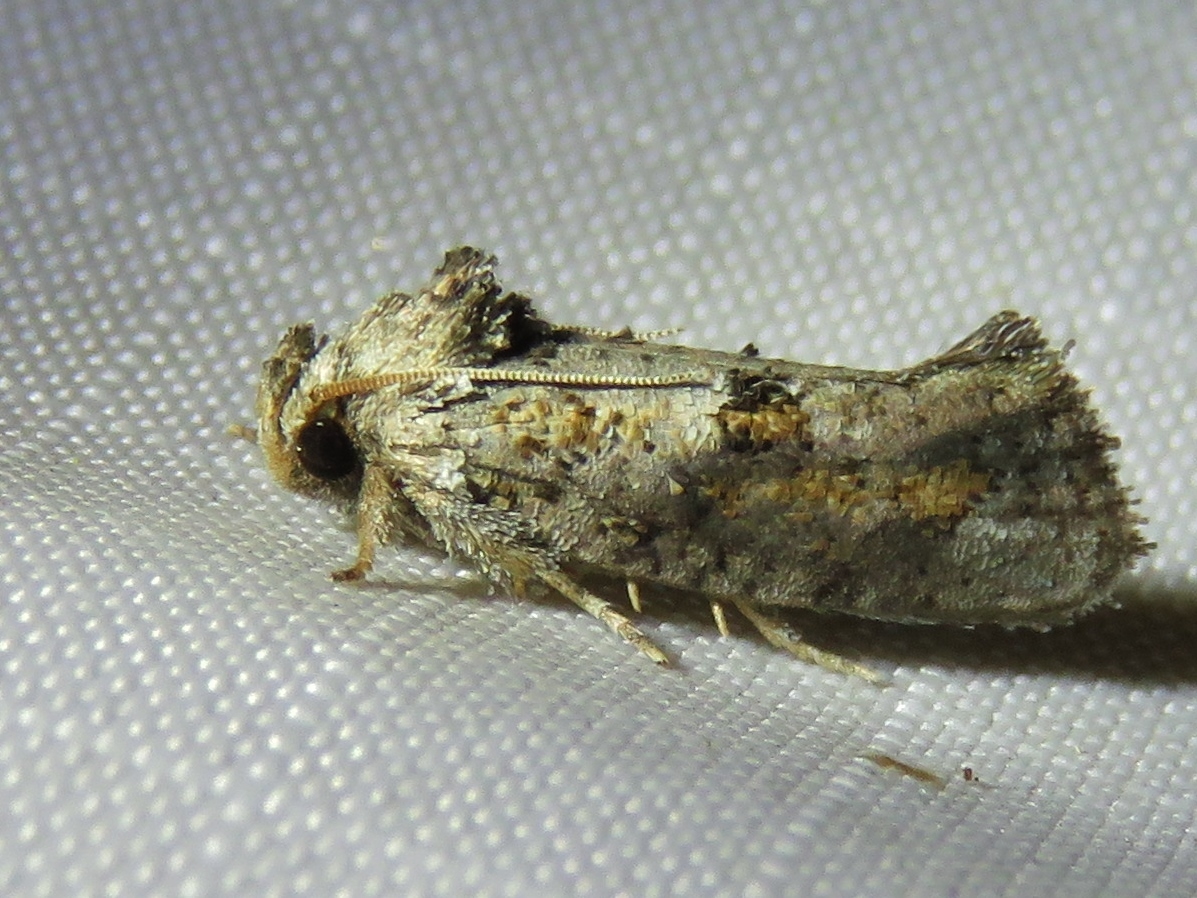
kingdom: Animalia
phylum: Arthropoda
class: Insecta
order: Lepidoptera
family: Tineidae
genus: Acrolophus
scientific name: Acrolophus piger
